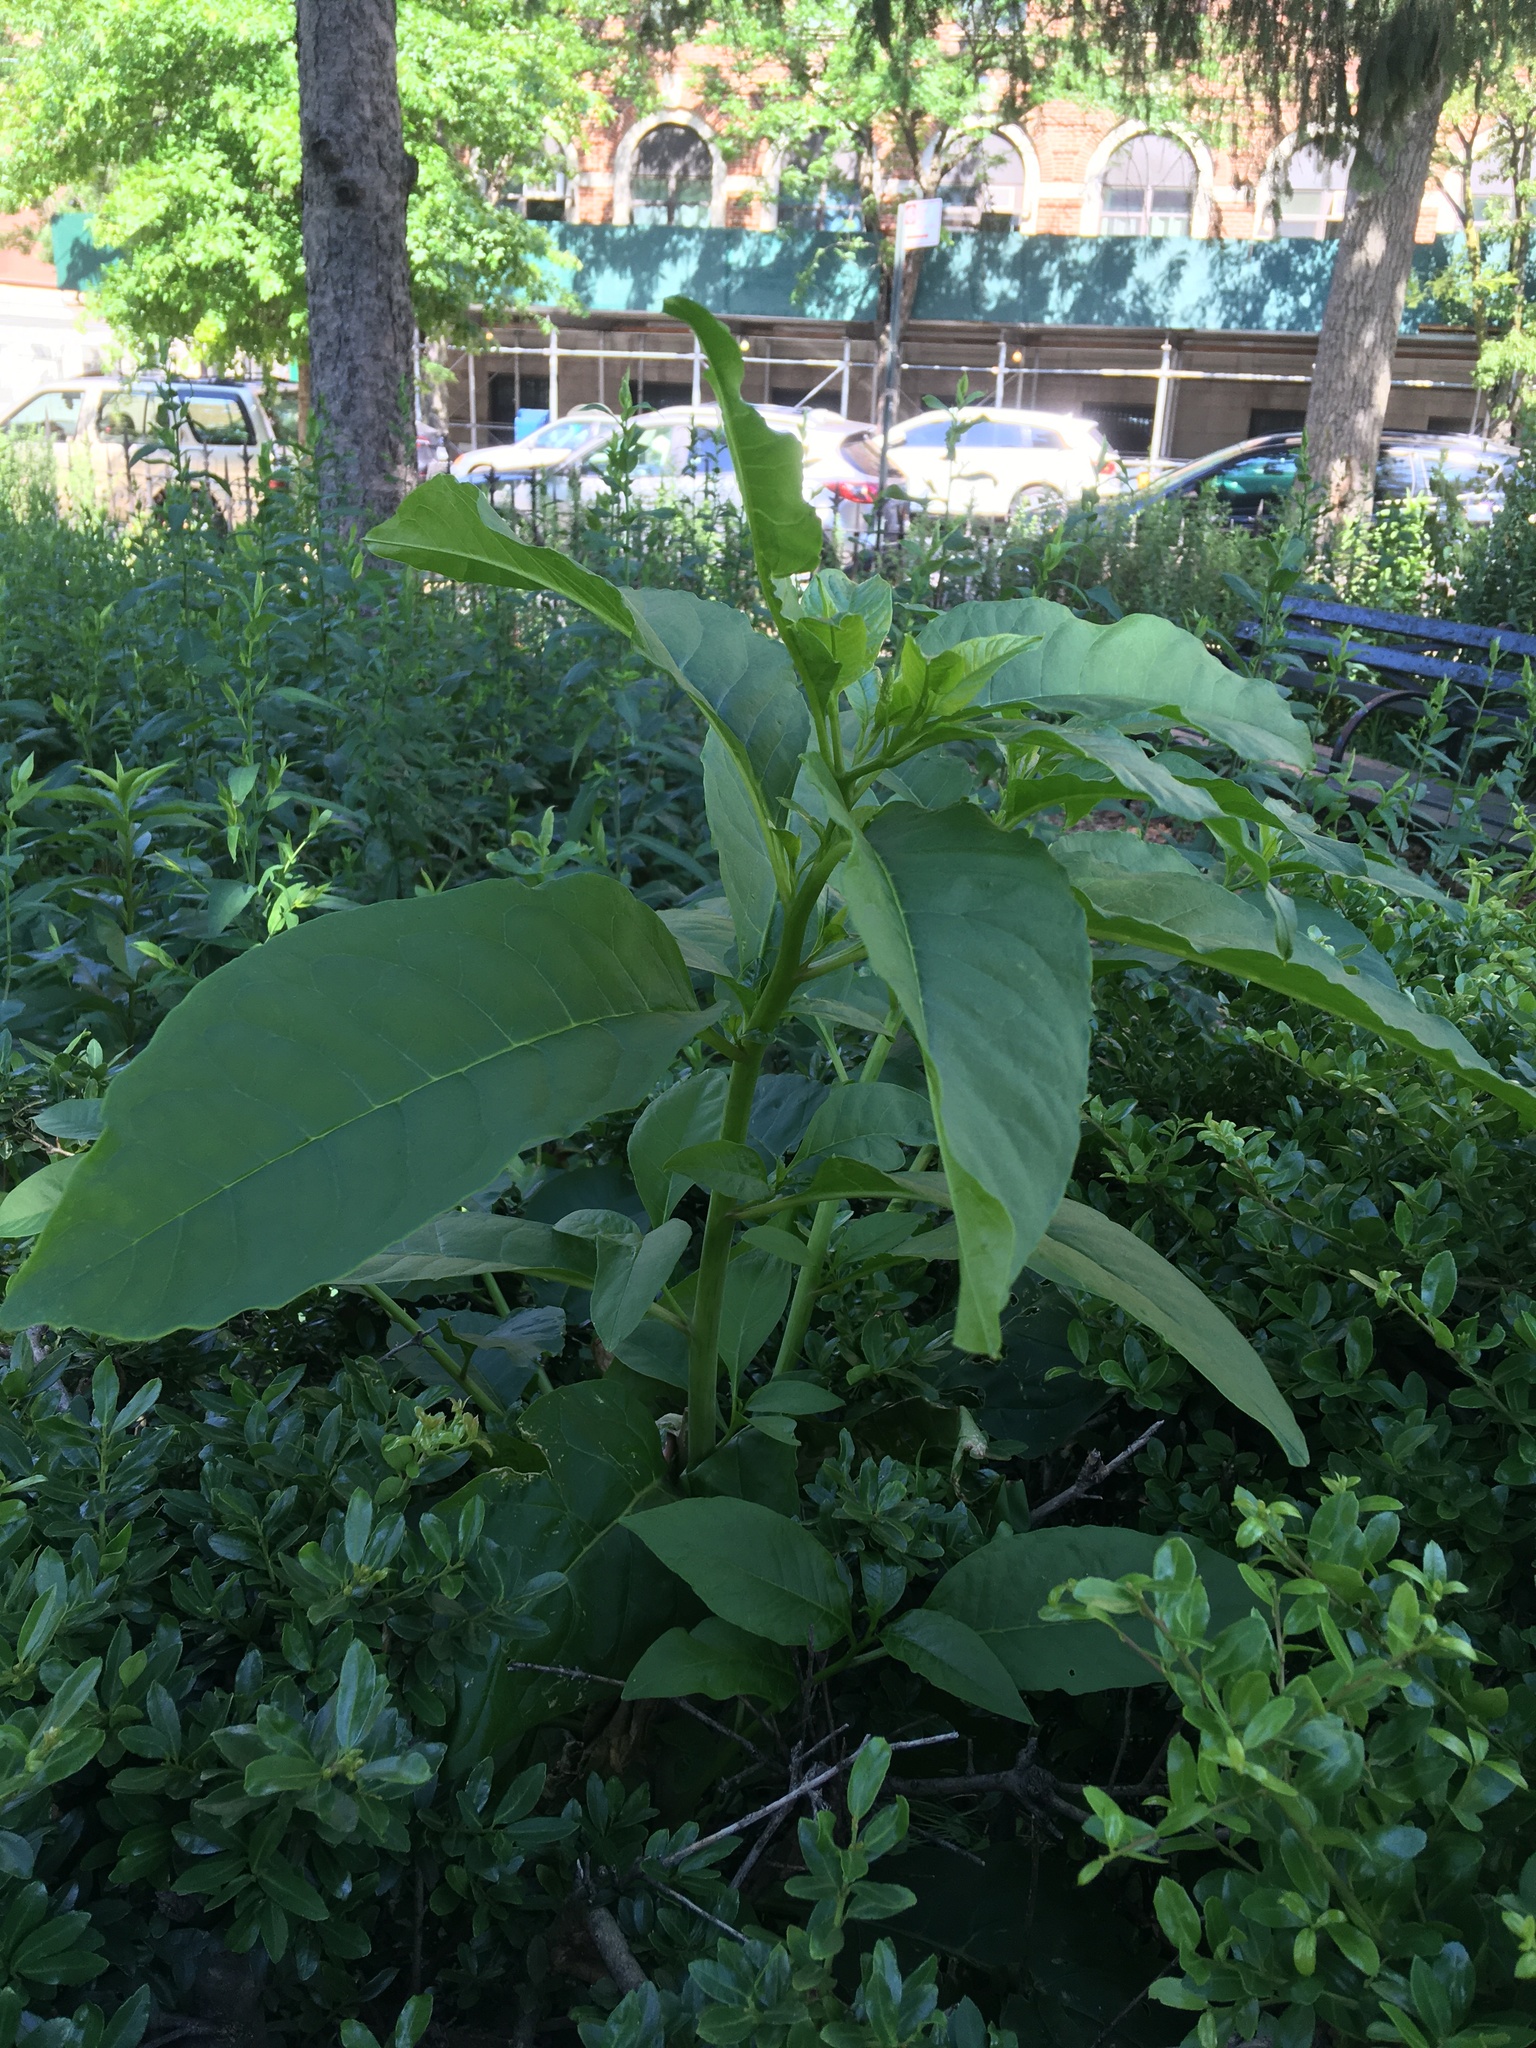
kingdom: Plantae
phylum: Tracheophyta
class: Magnoliopsida
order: Caryophyllales
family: Phytolaccaceae
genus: Phytolacca
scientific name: Phytolacca americana
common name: American pokeweed
